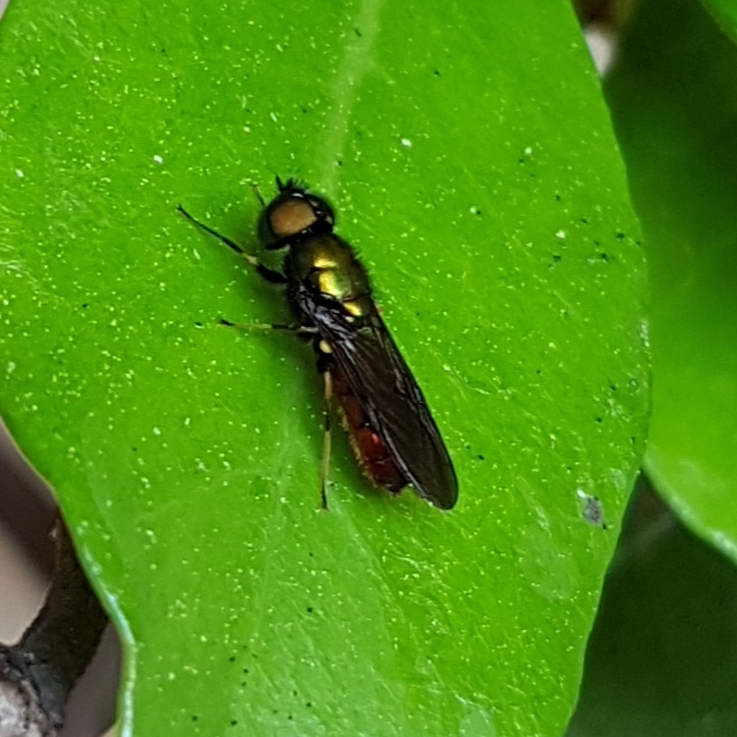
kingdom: Animalia
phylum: Arthropoda
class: Insecta
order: Diptera
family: Stratiomyidae
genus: Chloromyia
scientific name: Chloromyia speciosa
